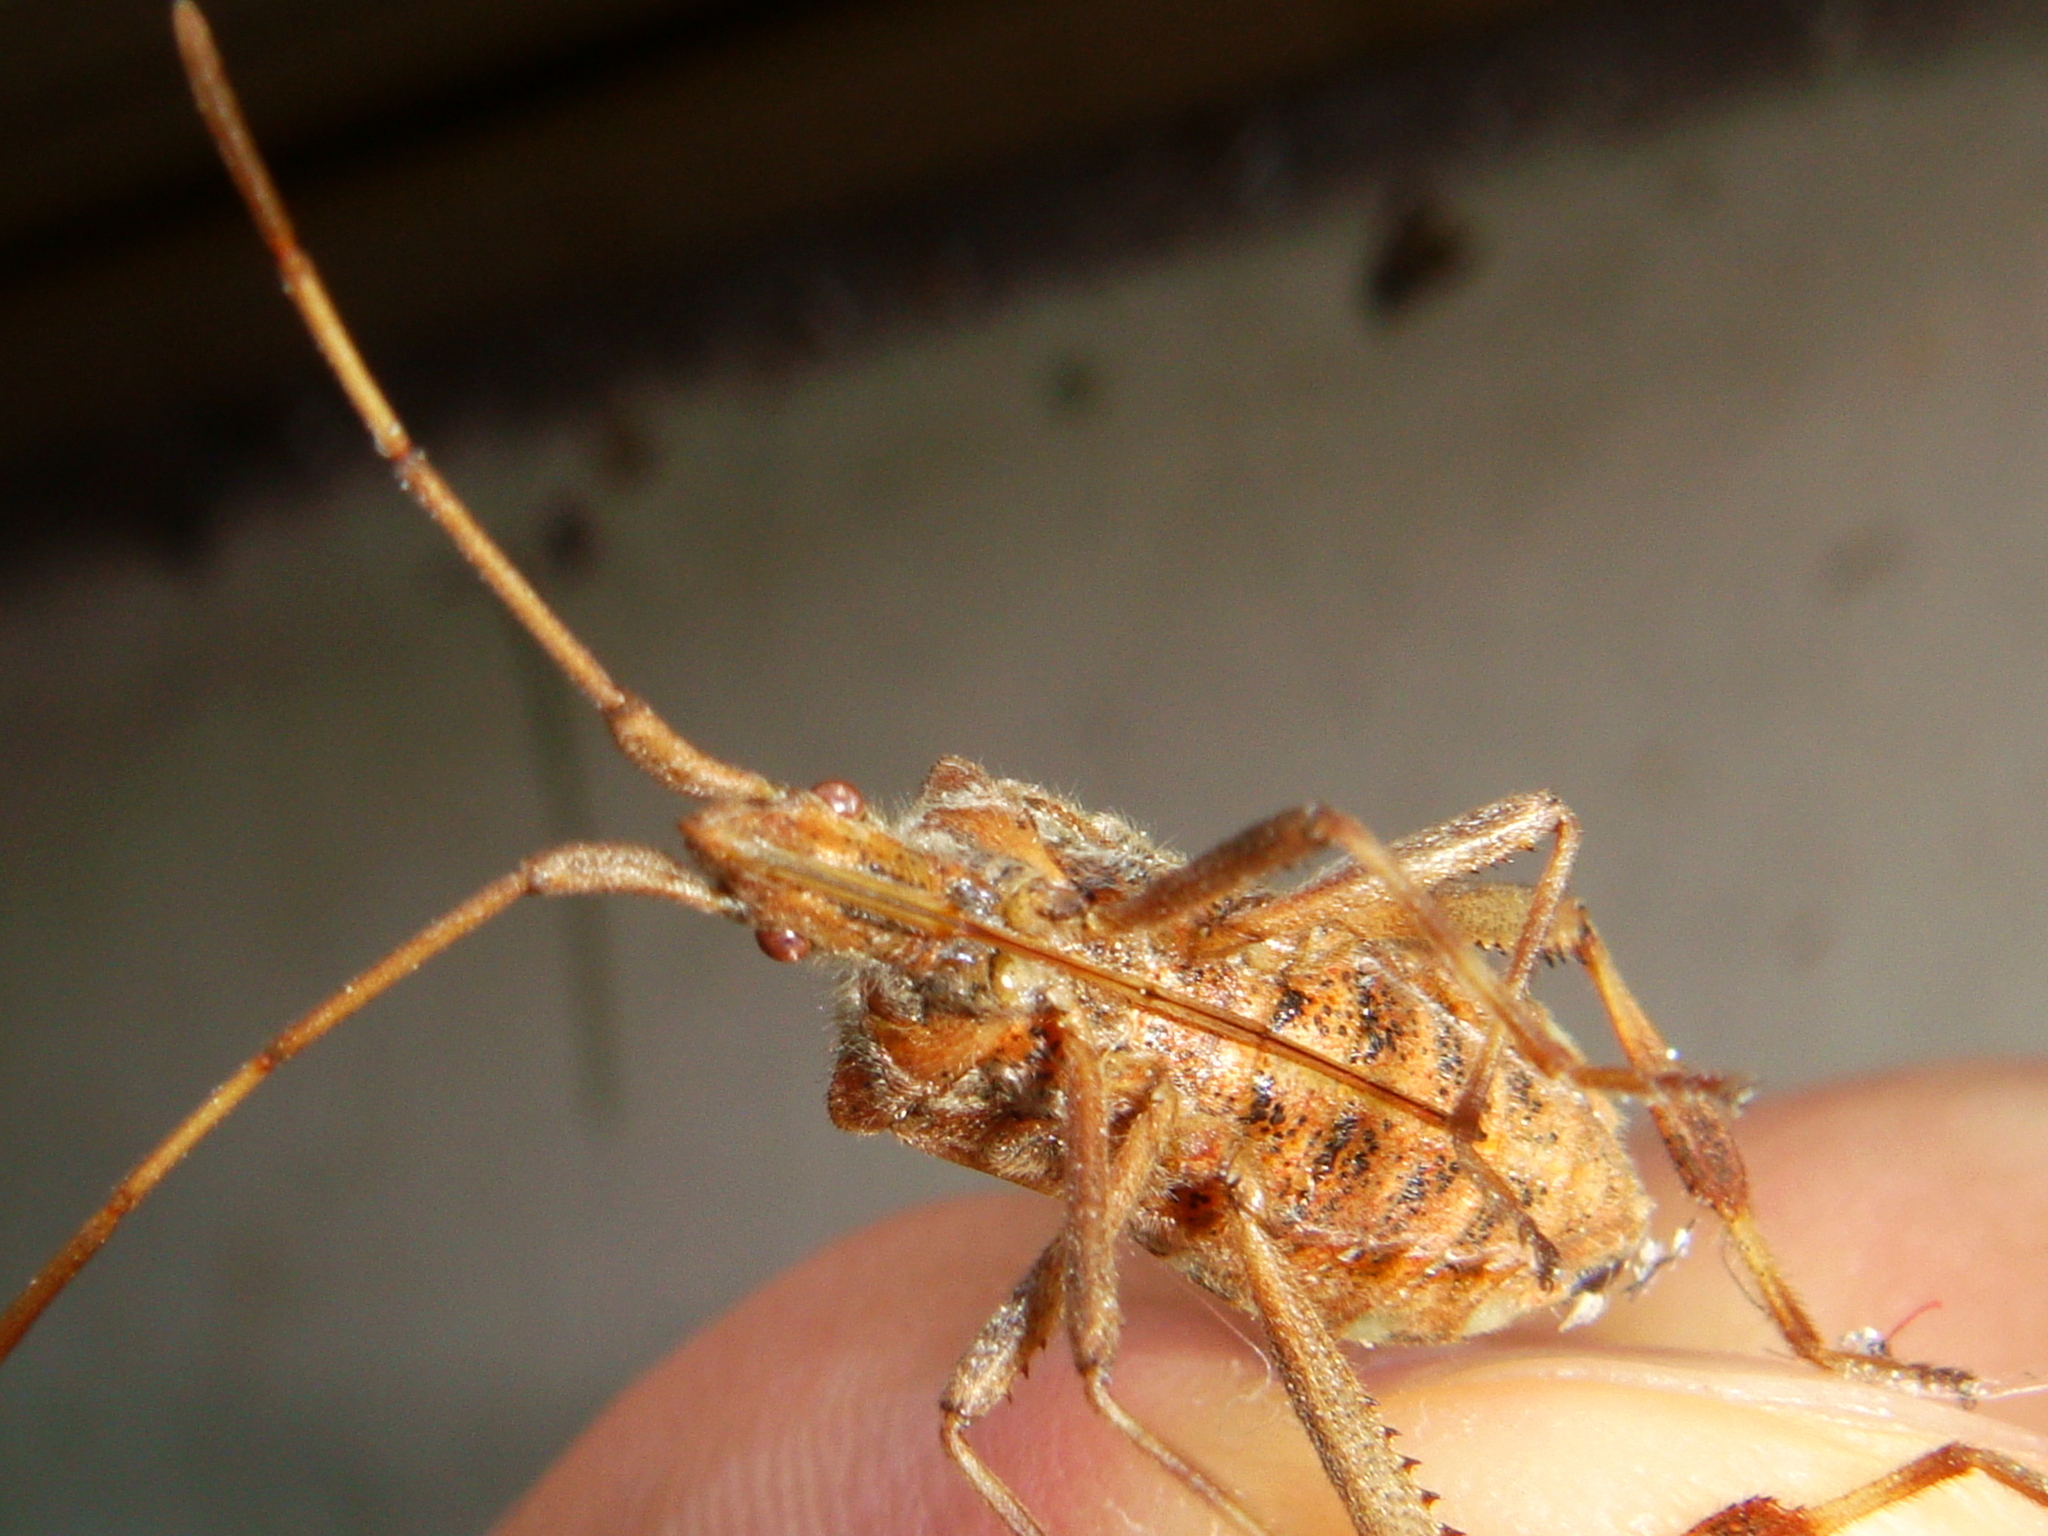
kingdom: Animalia
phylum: Arthropoda
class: Insecta
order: Hemiptera
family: Coreidae
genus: Leptoglossus
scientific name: Leptoglossus occidentalis
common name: Western conifer-seed bug
